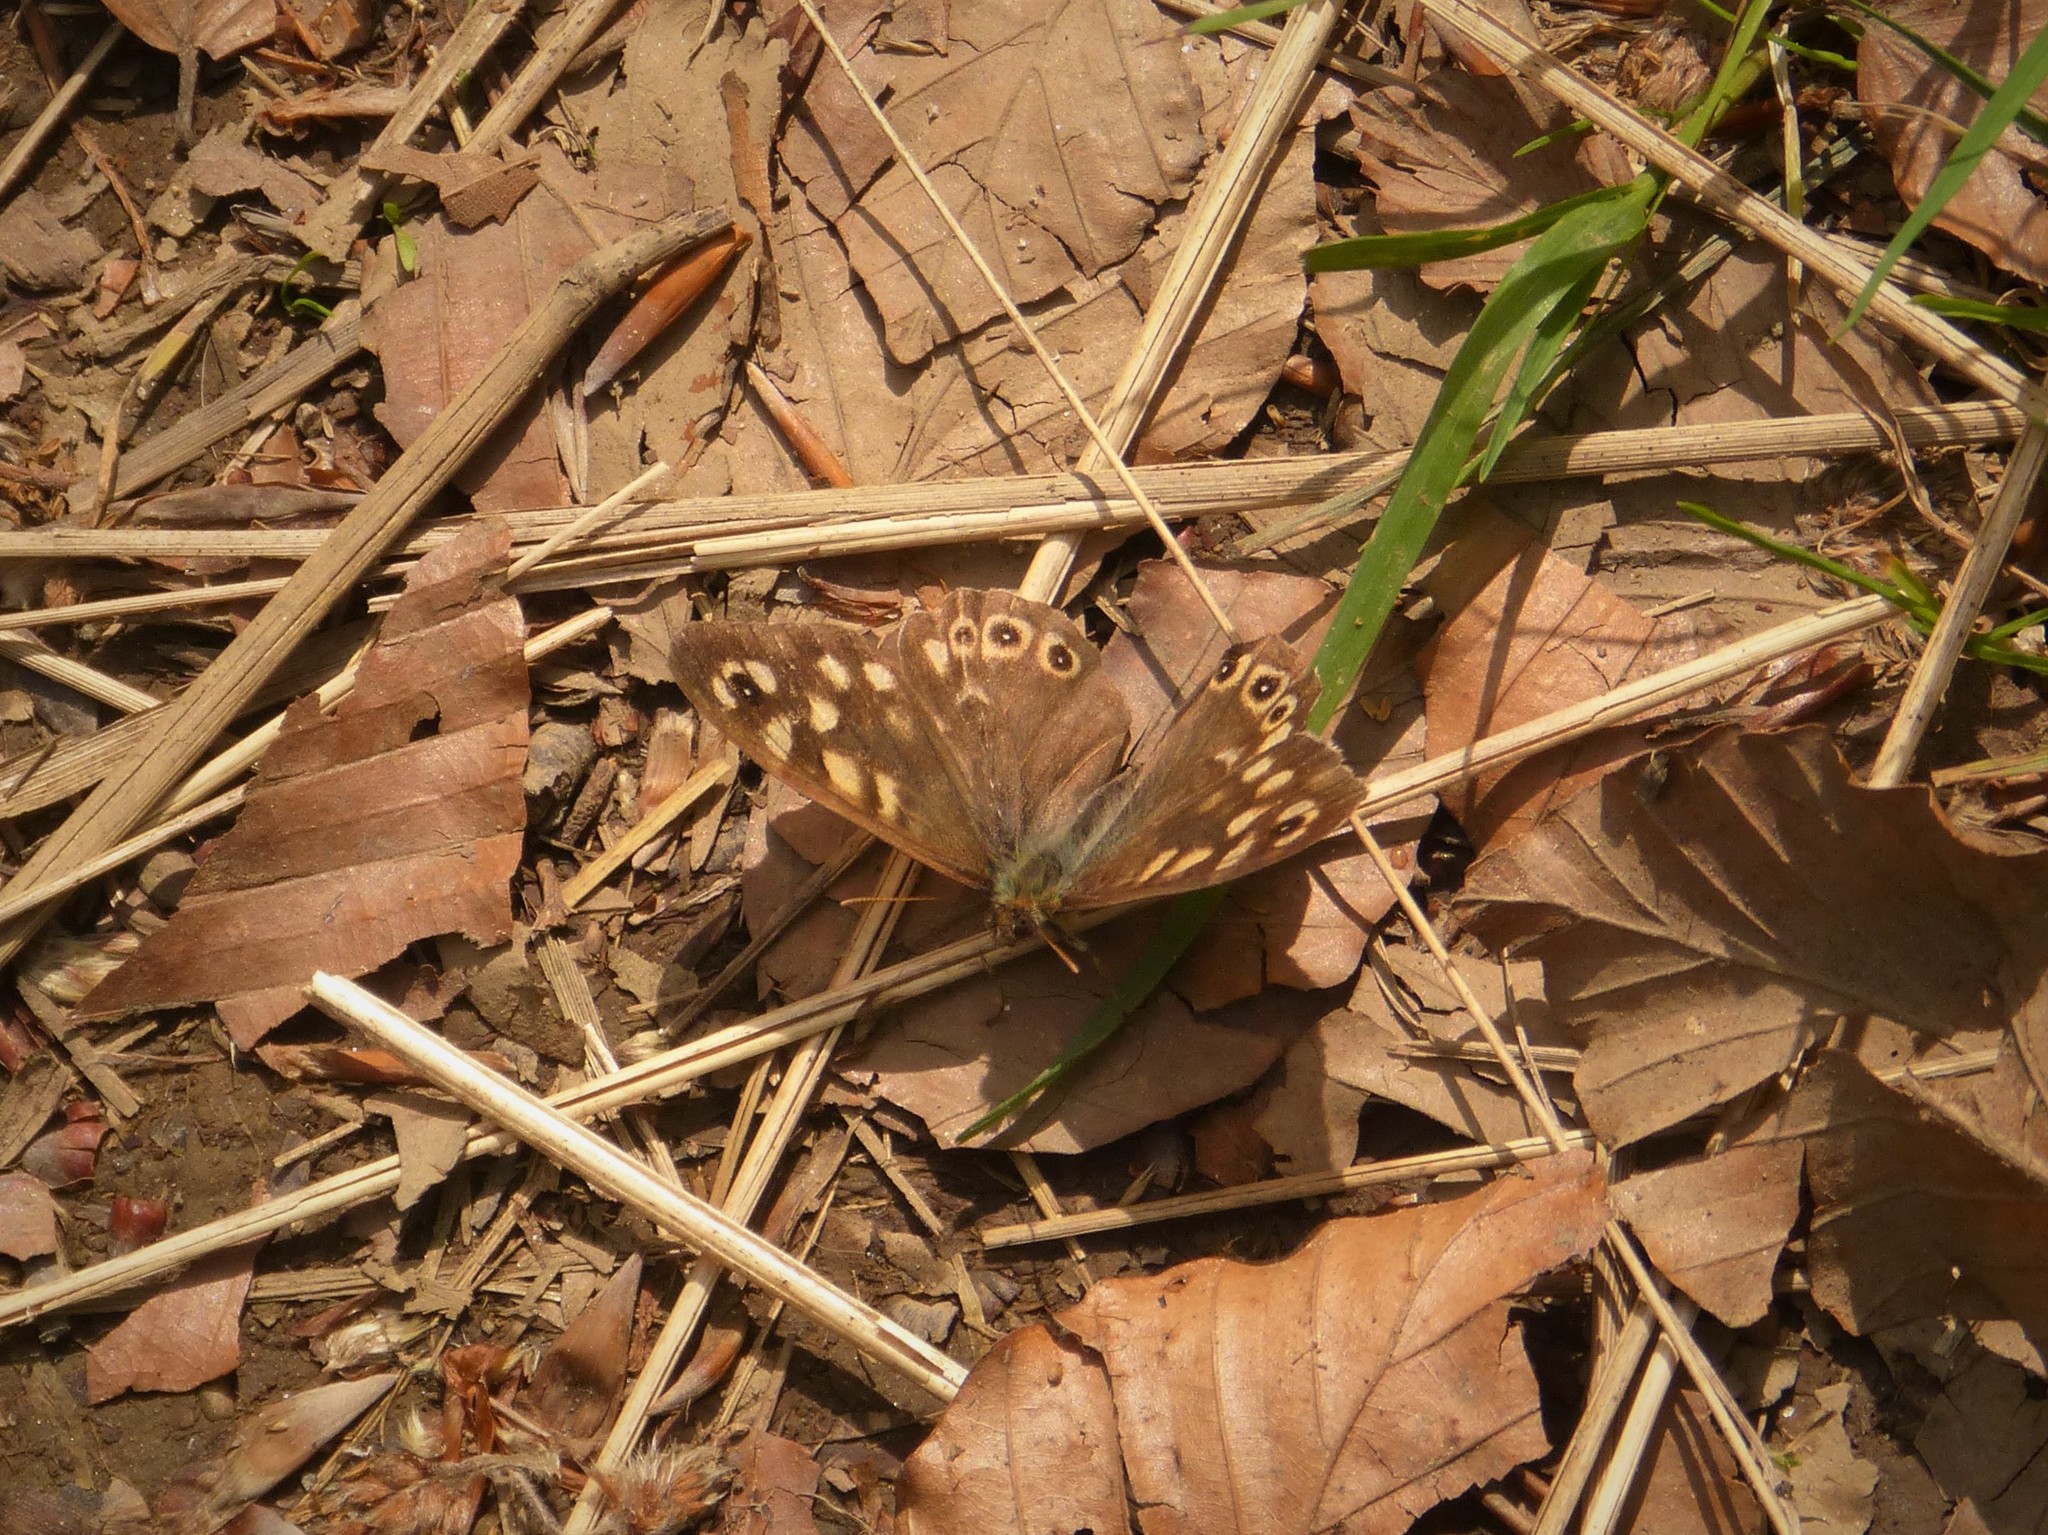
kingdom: Animalia
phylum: Arthropoda
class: Insecta
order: Lepidoptera
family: Nymphalidae
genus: Pararge
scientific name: Pararge aegeria
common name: Speckled wood
